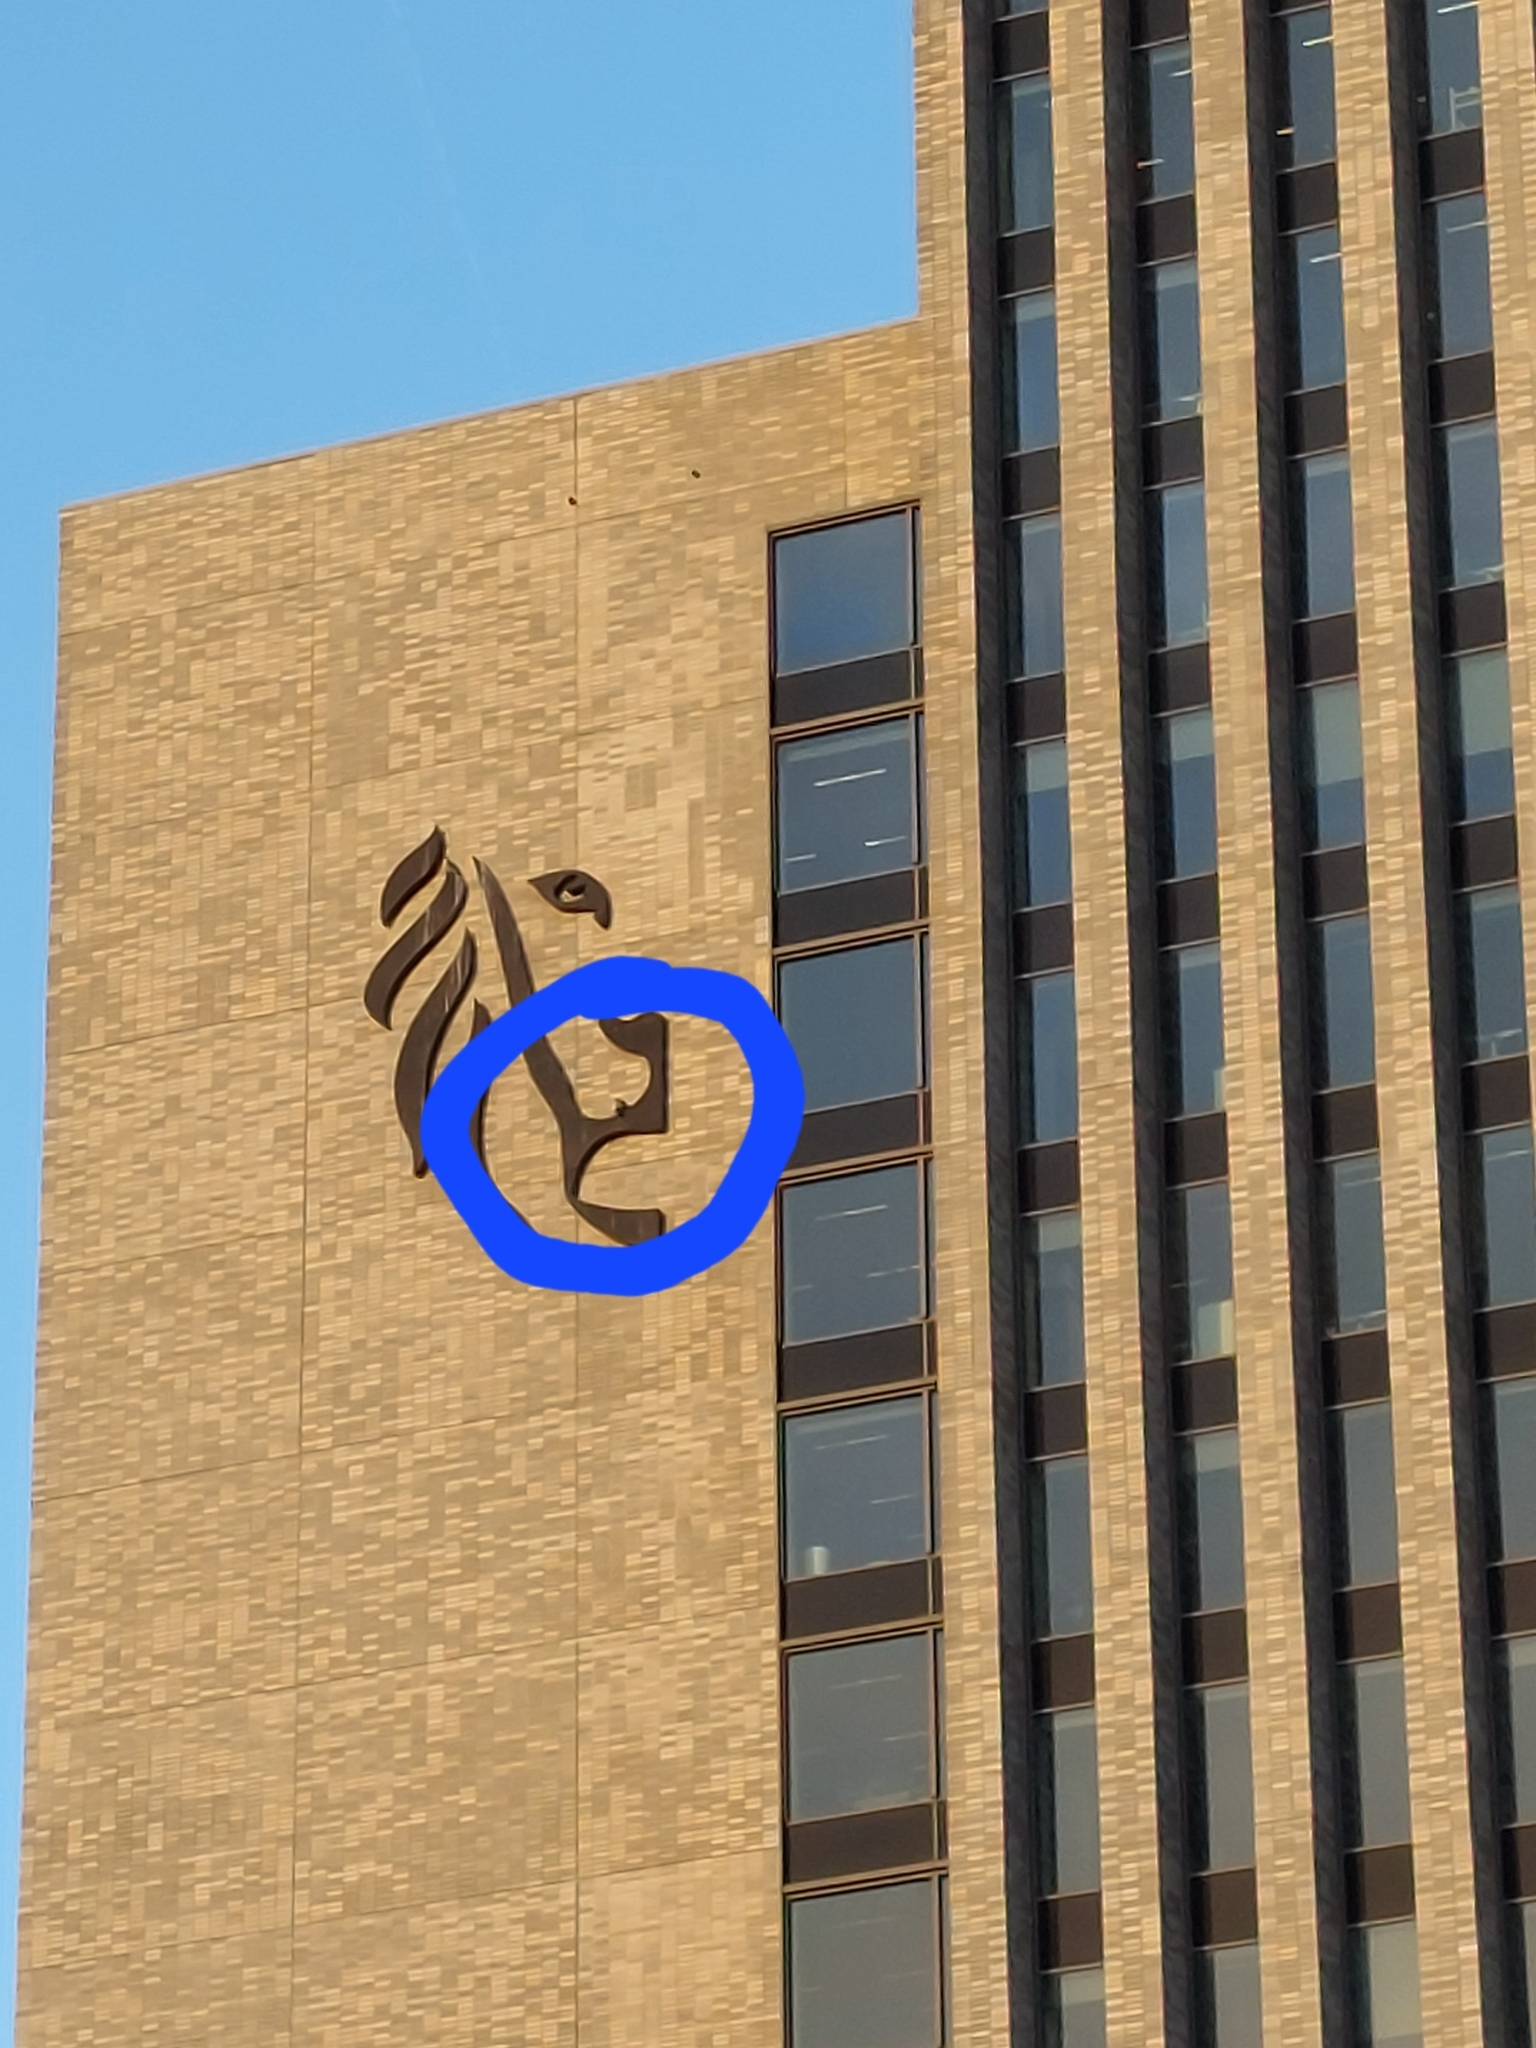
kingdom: Animalia
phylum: Chordata
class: Aves
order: Falconiformes
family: Falconidae
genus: Falco
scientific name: Falco peregrinus
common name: Peregrine falcon
